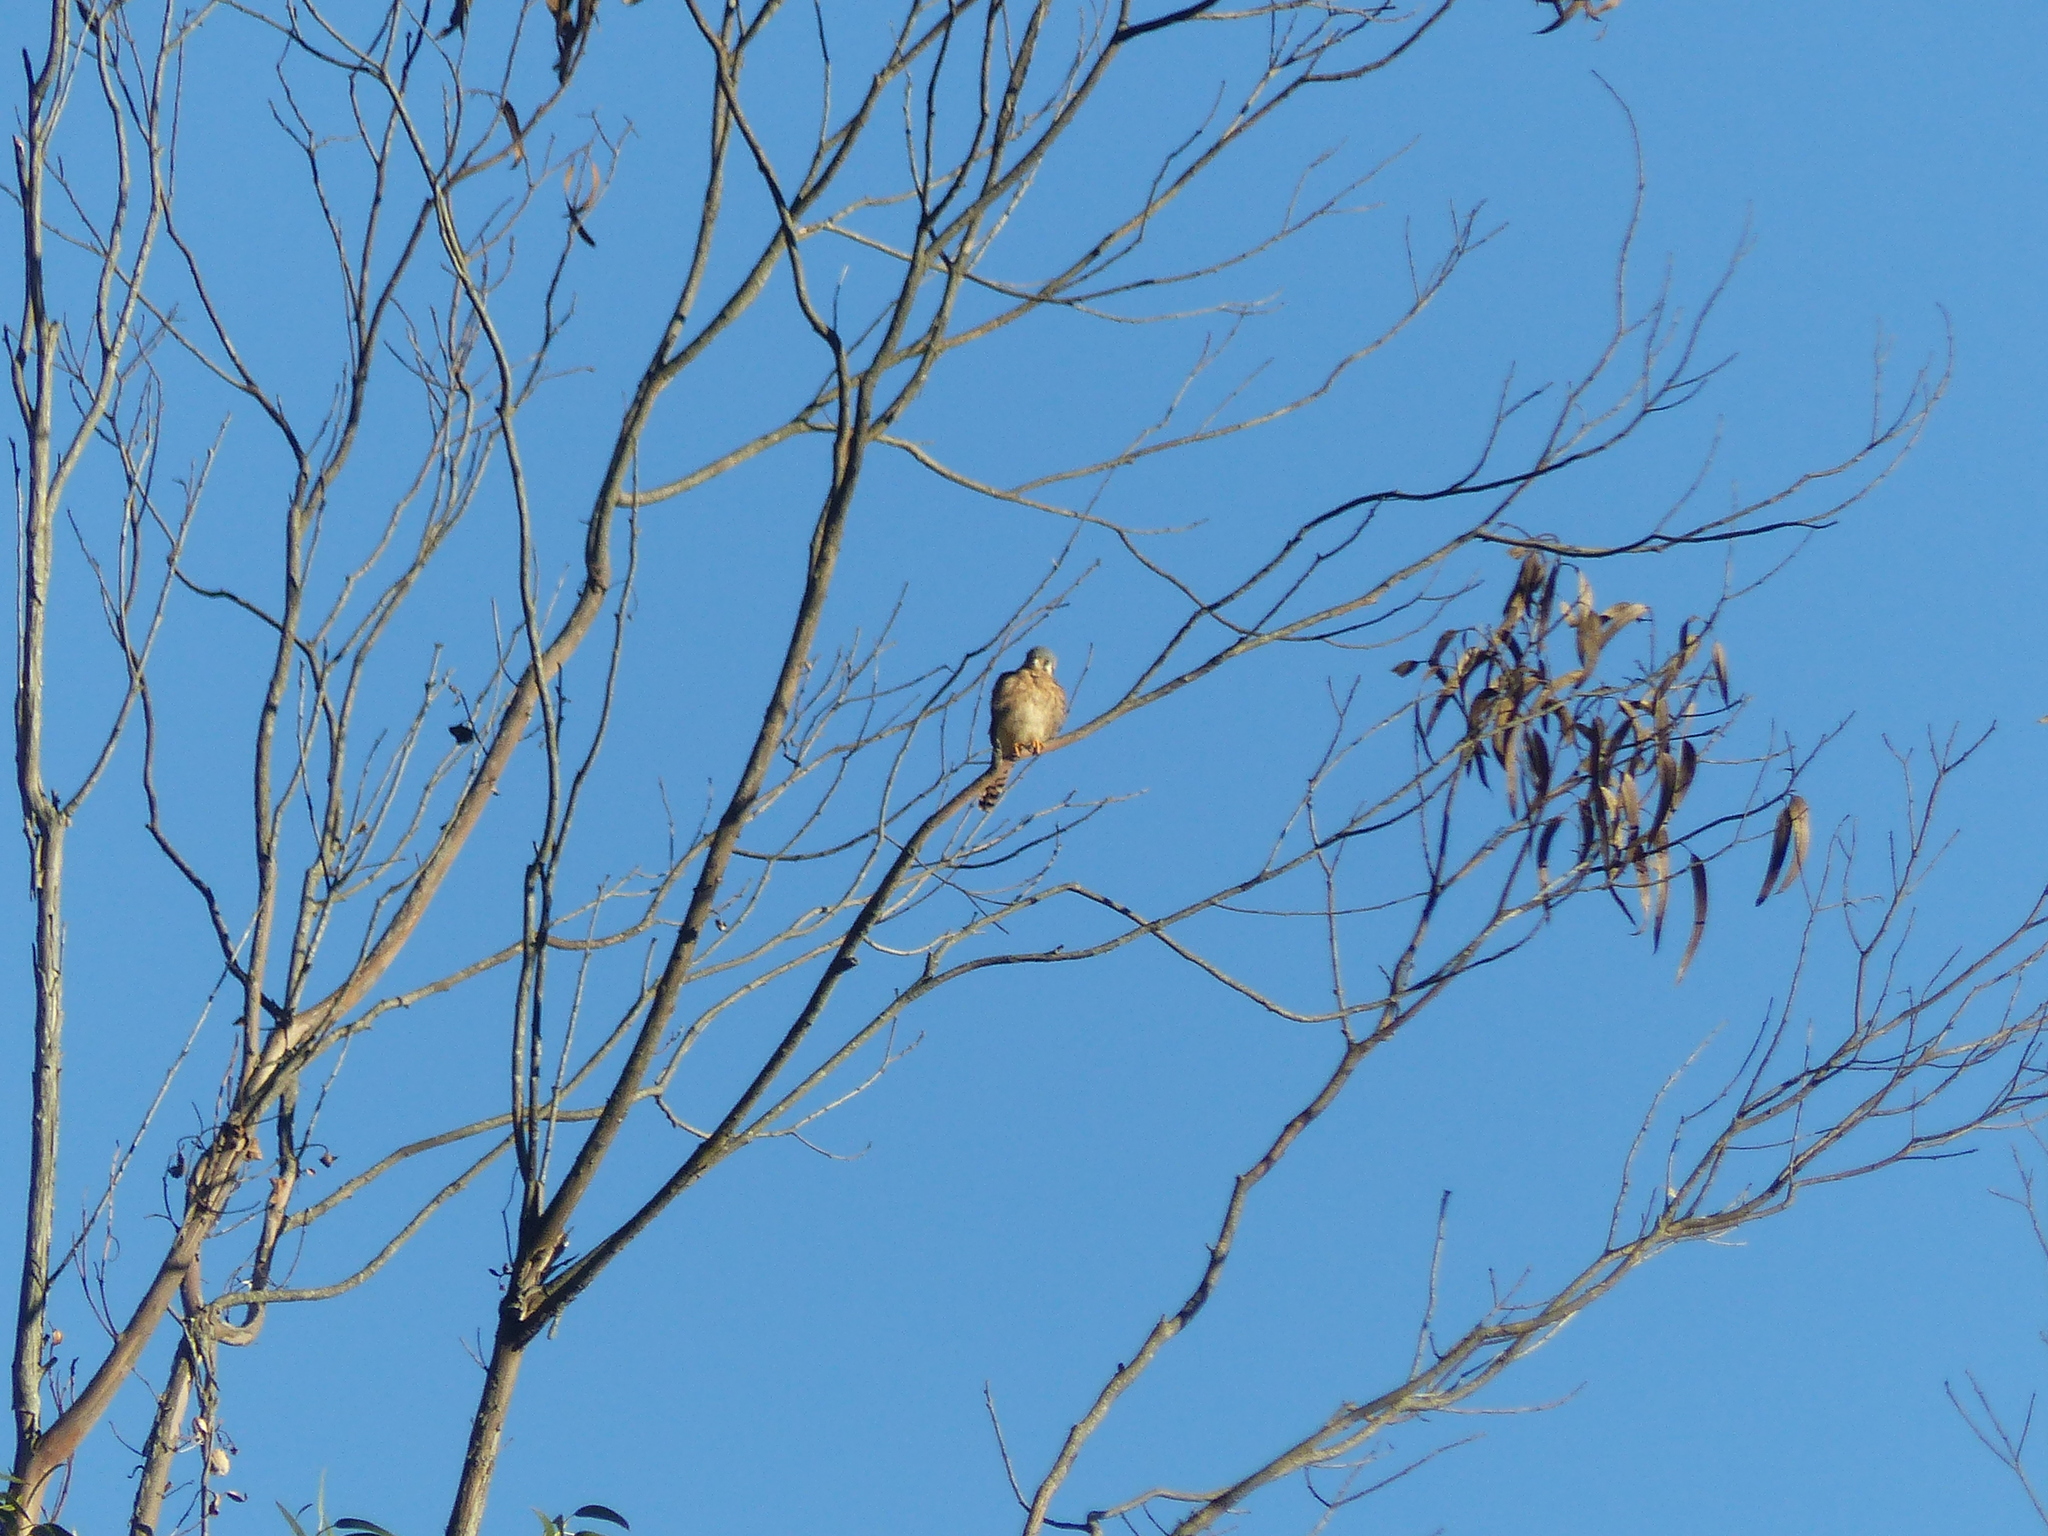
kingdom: Animalia
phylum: Chordata
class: Aves
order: Falconiformes
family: Falconidae
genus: Falco
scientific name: Falco sparverius
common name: American kestrel
